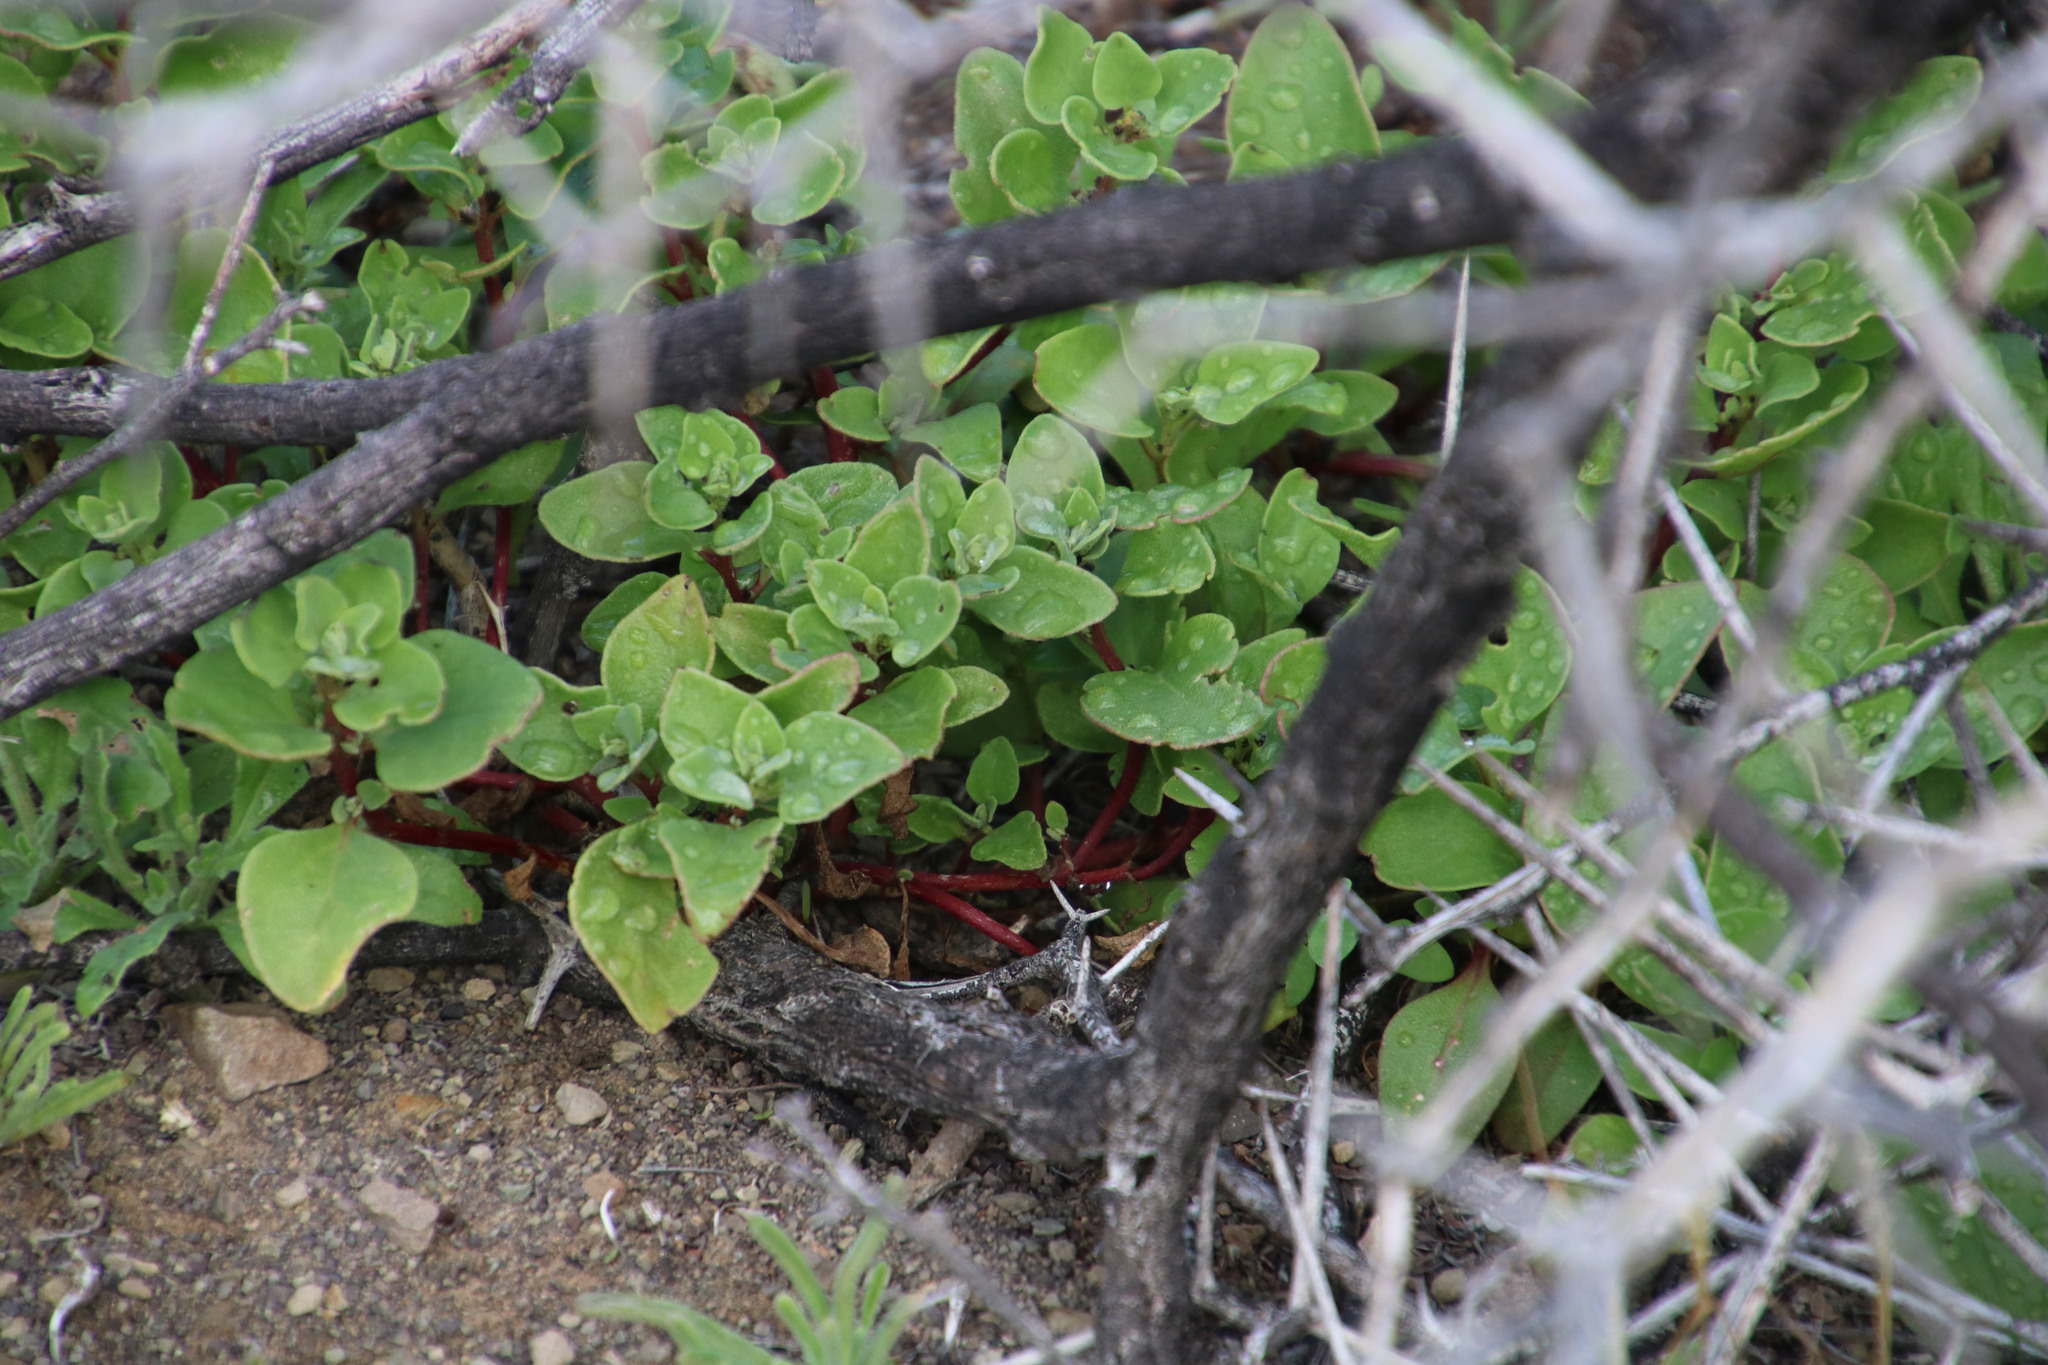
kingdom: Plantae
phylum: Tracheophyta
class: Magnoliopsida
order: Caryophyllales
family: Aizoaceae
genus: Tetragonia
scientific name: Tetragonia echinata
